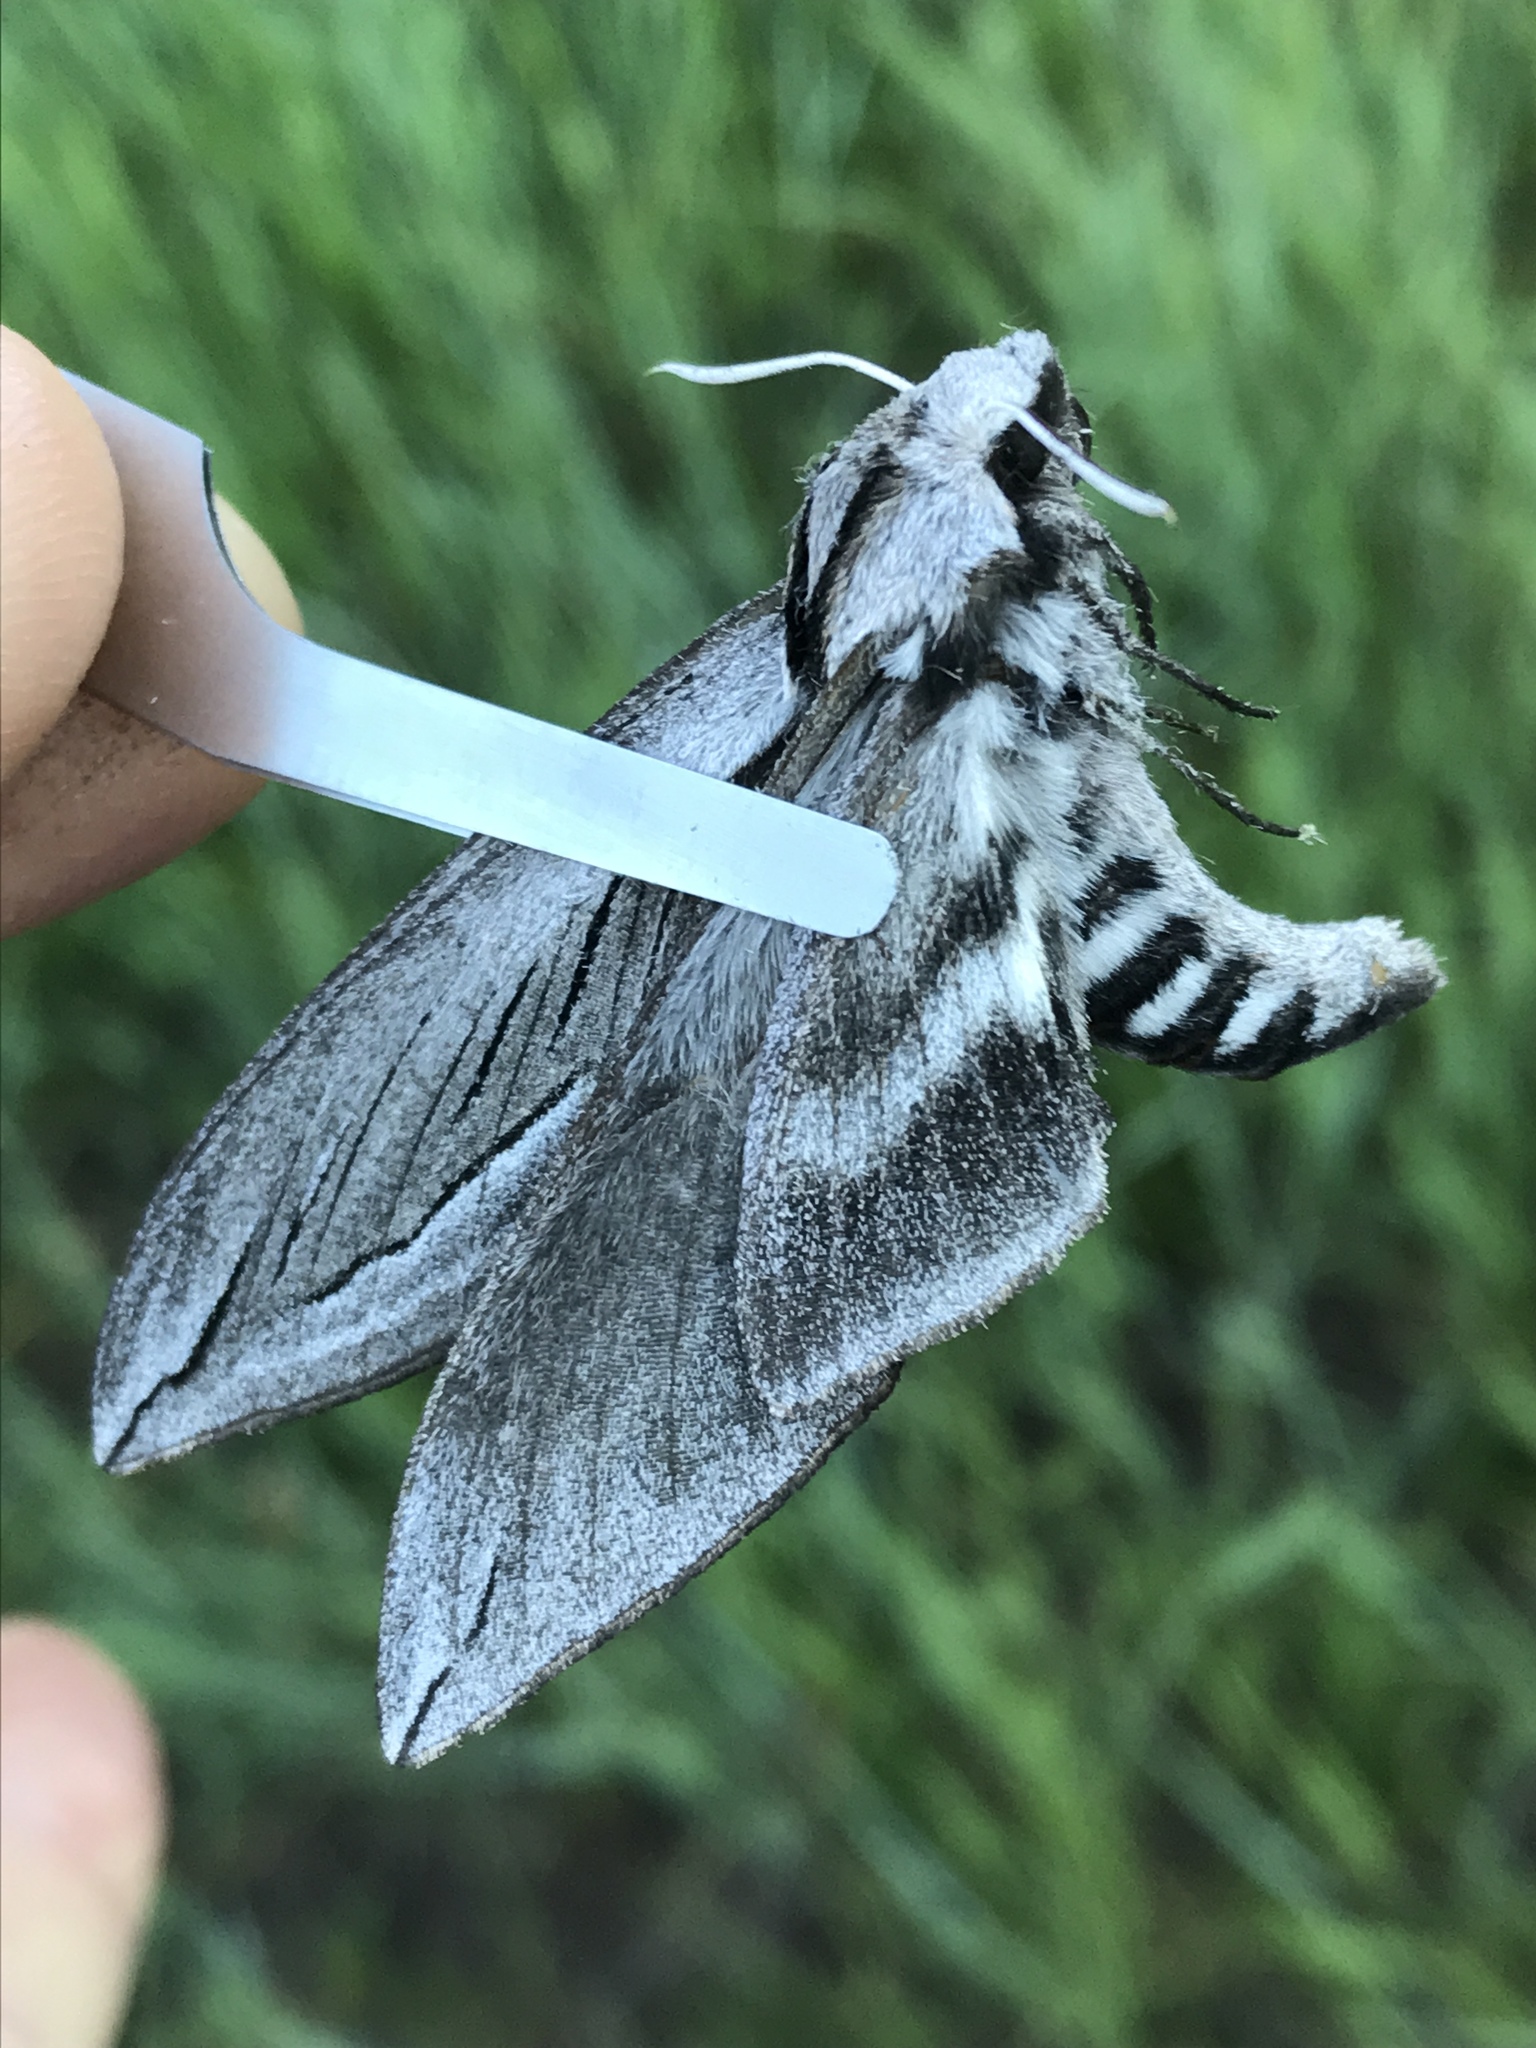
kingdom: Animalia
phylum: Arthropoda
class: Insecta
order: Lepidoptera
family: Sphingidae
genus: Sphinx
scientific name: Sphinx vashti
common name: Snowberry sphinx
